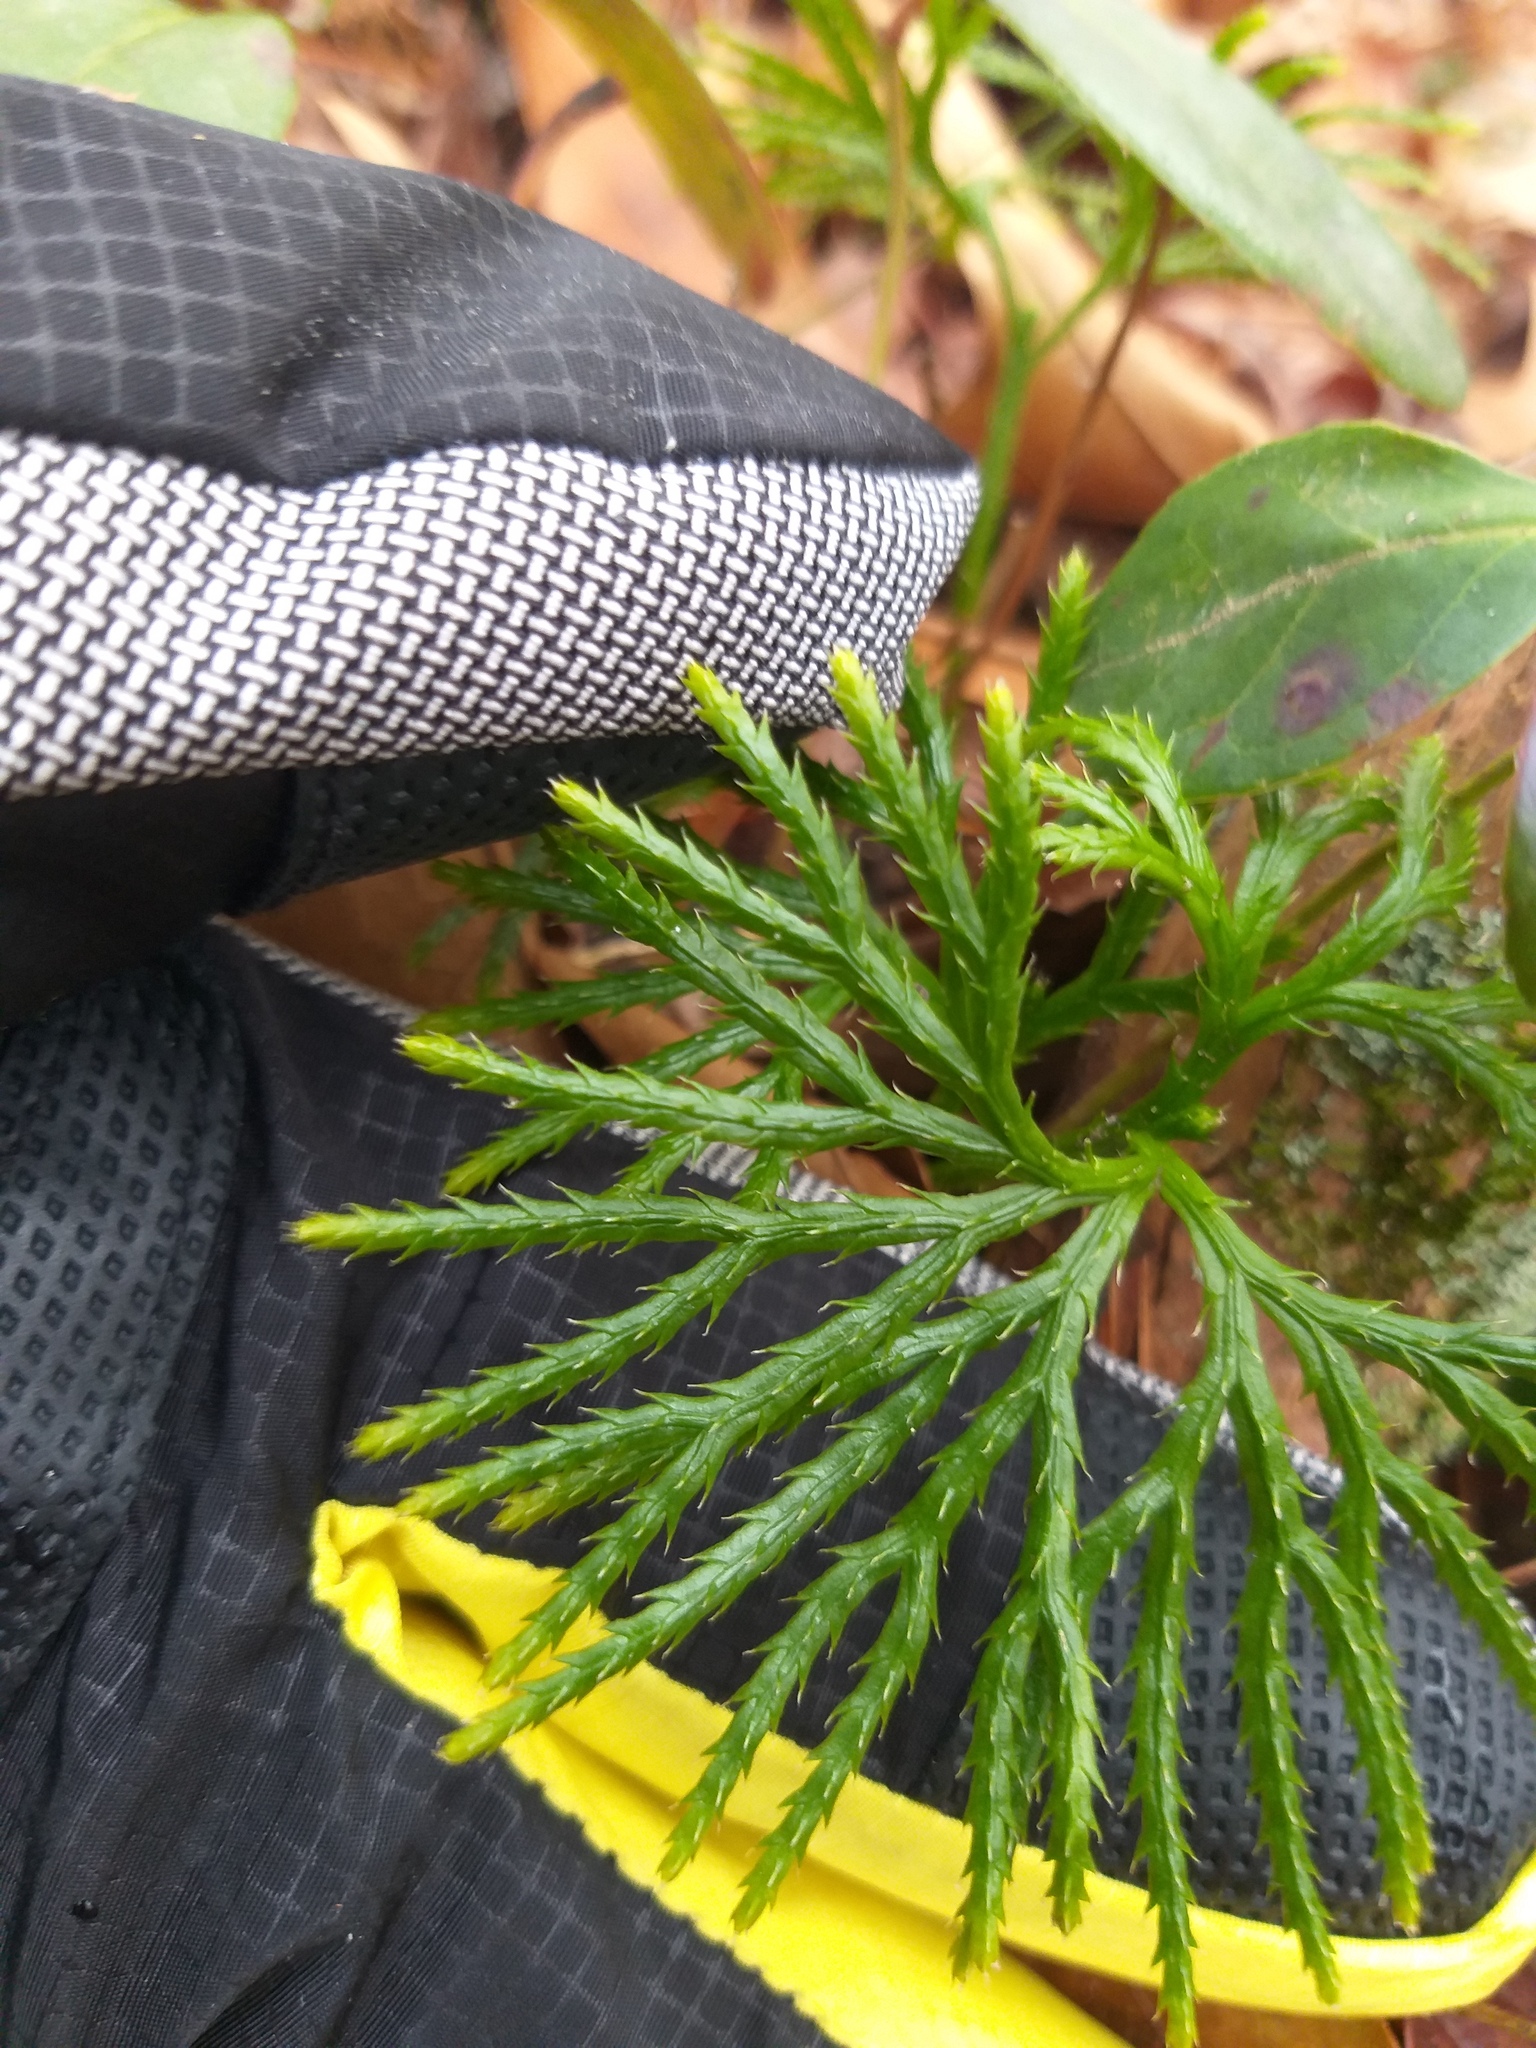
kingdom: Plantae
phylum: Tracheophyta
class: Lycopodiopsida
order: Lycopodiales
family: Lycopodiaceae
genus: Diphasiastrum
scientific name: Diphasiastrum digitatum
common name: Southern running-pine
